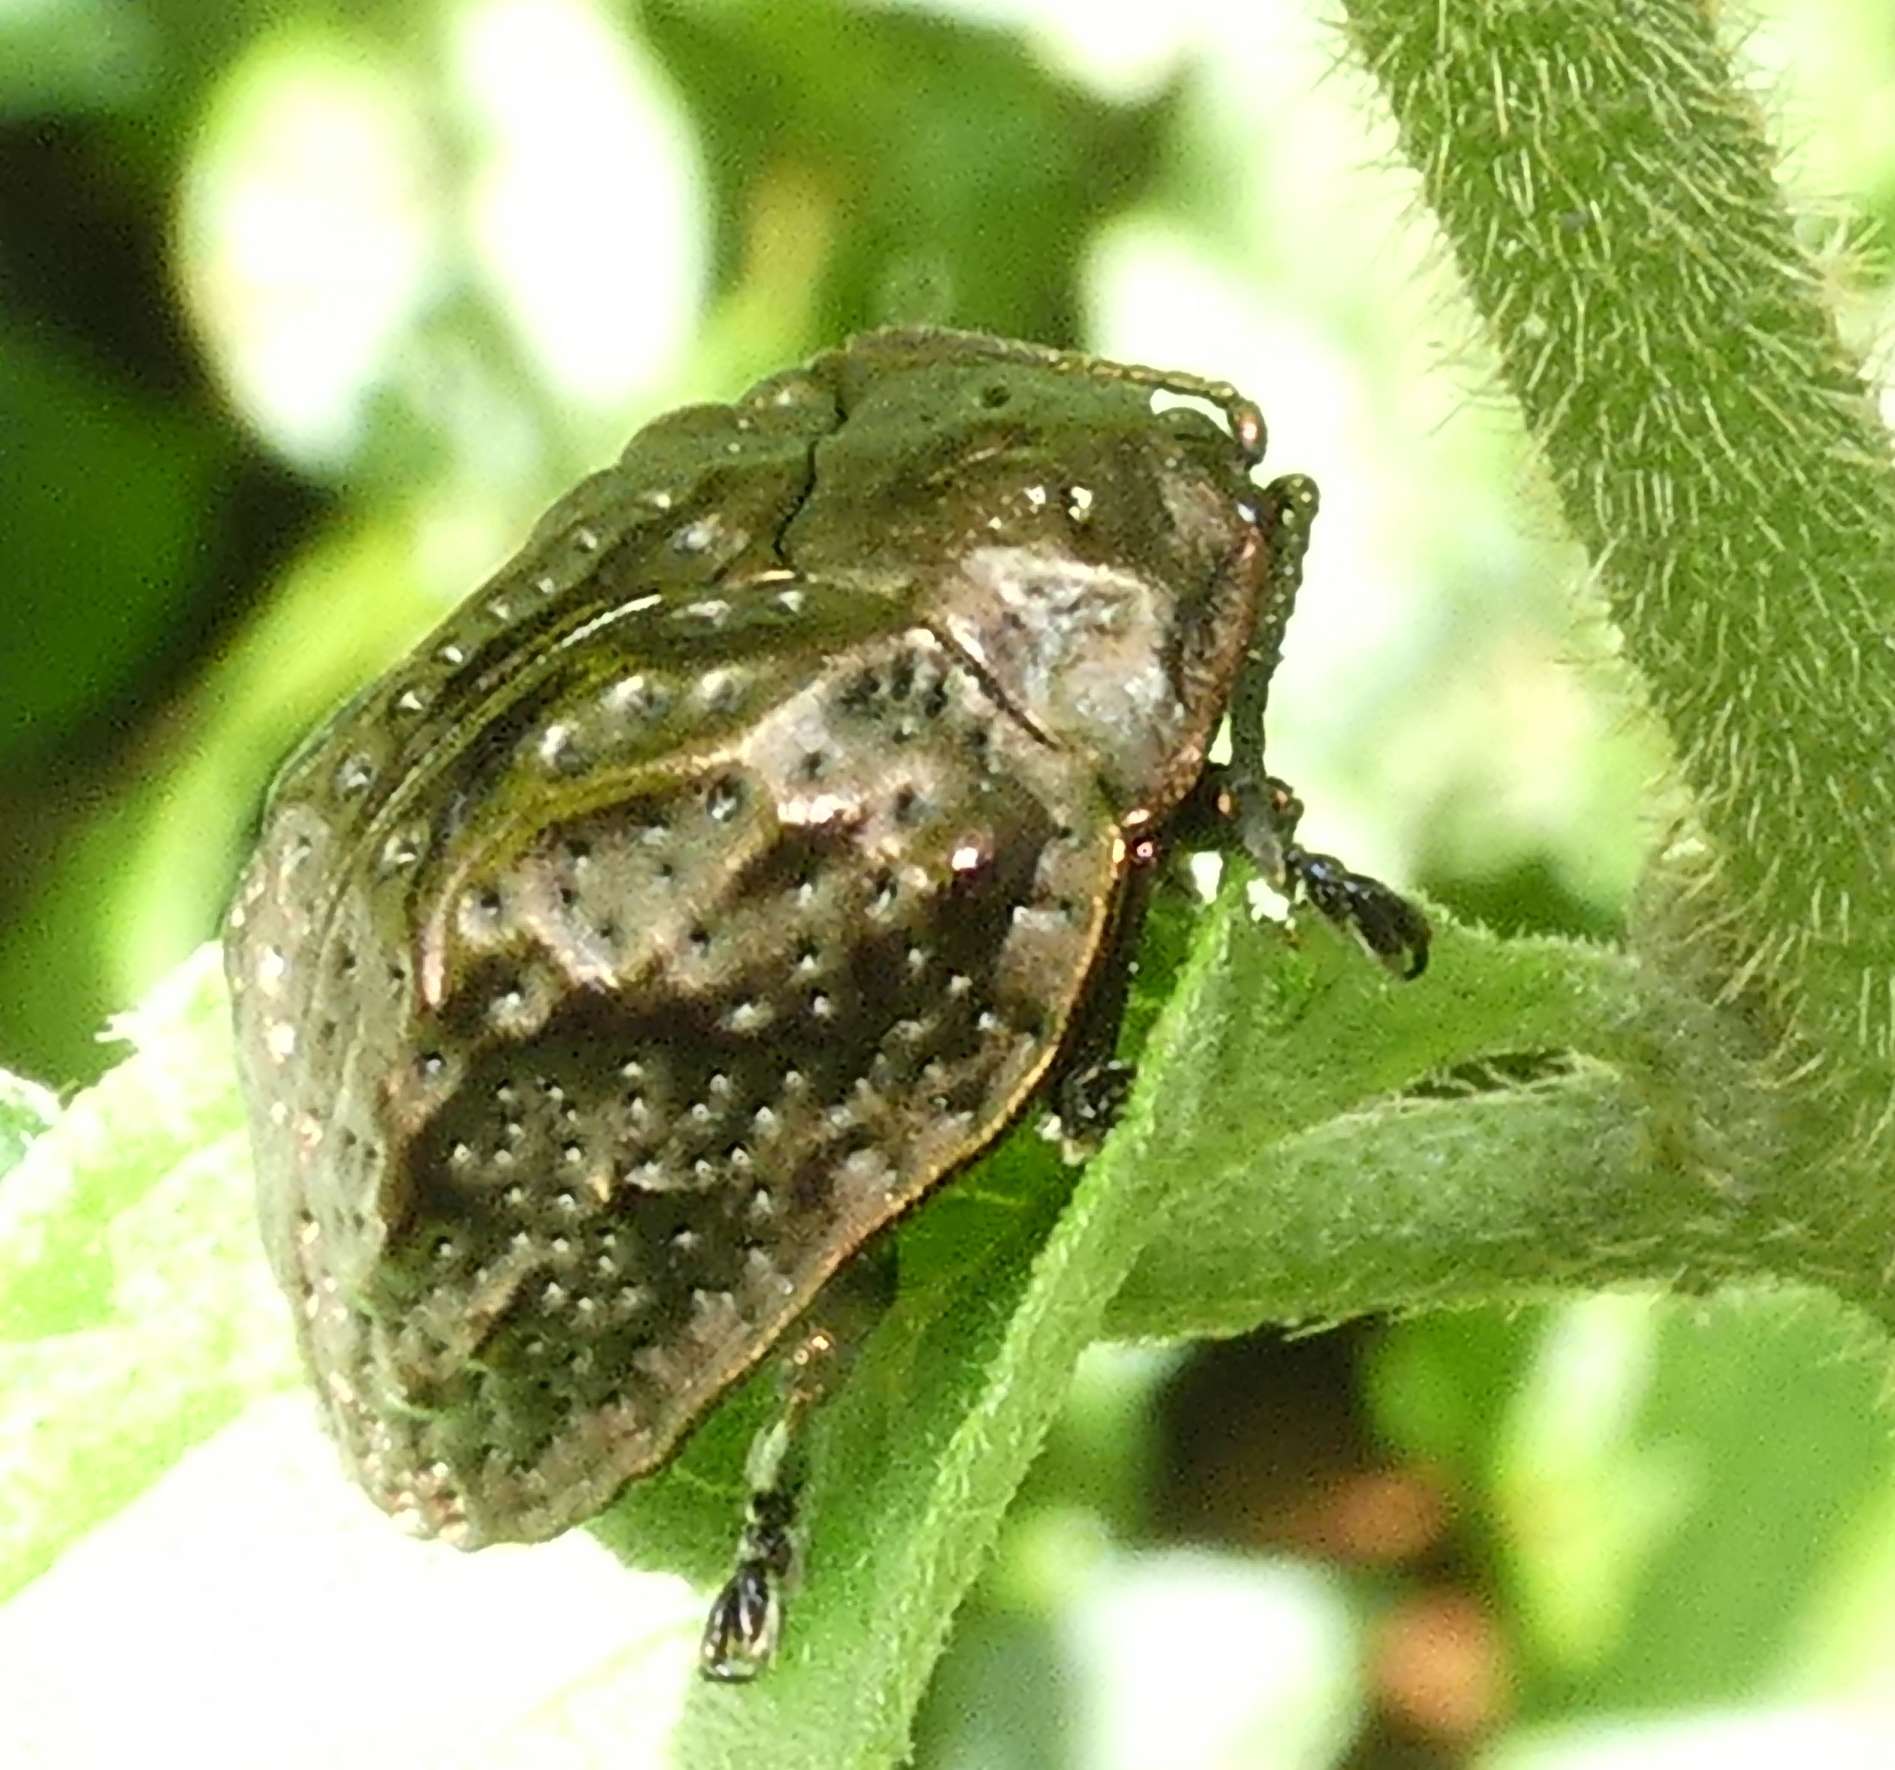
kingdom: Animalia
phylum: Arthropoda
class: Insecta
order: Coleoptera
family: Chrysomelidae
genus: Polychalca
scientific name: Polychalca aerea
